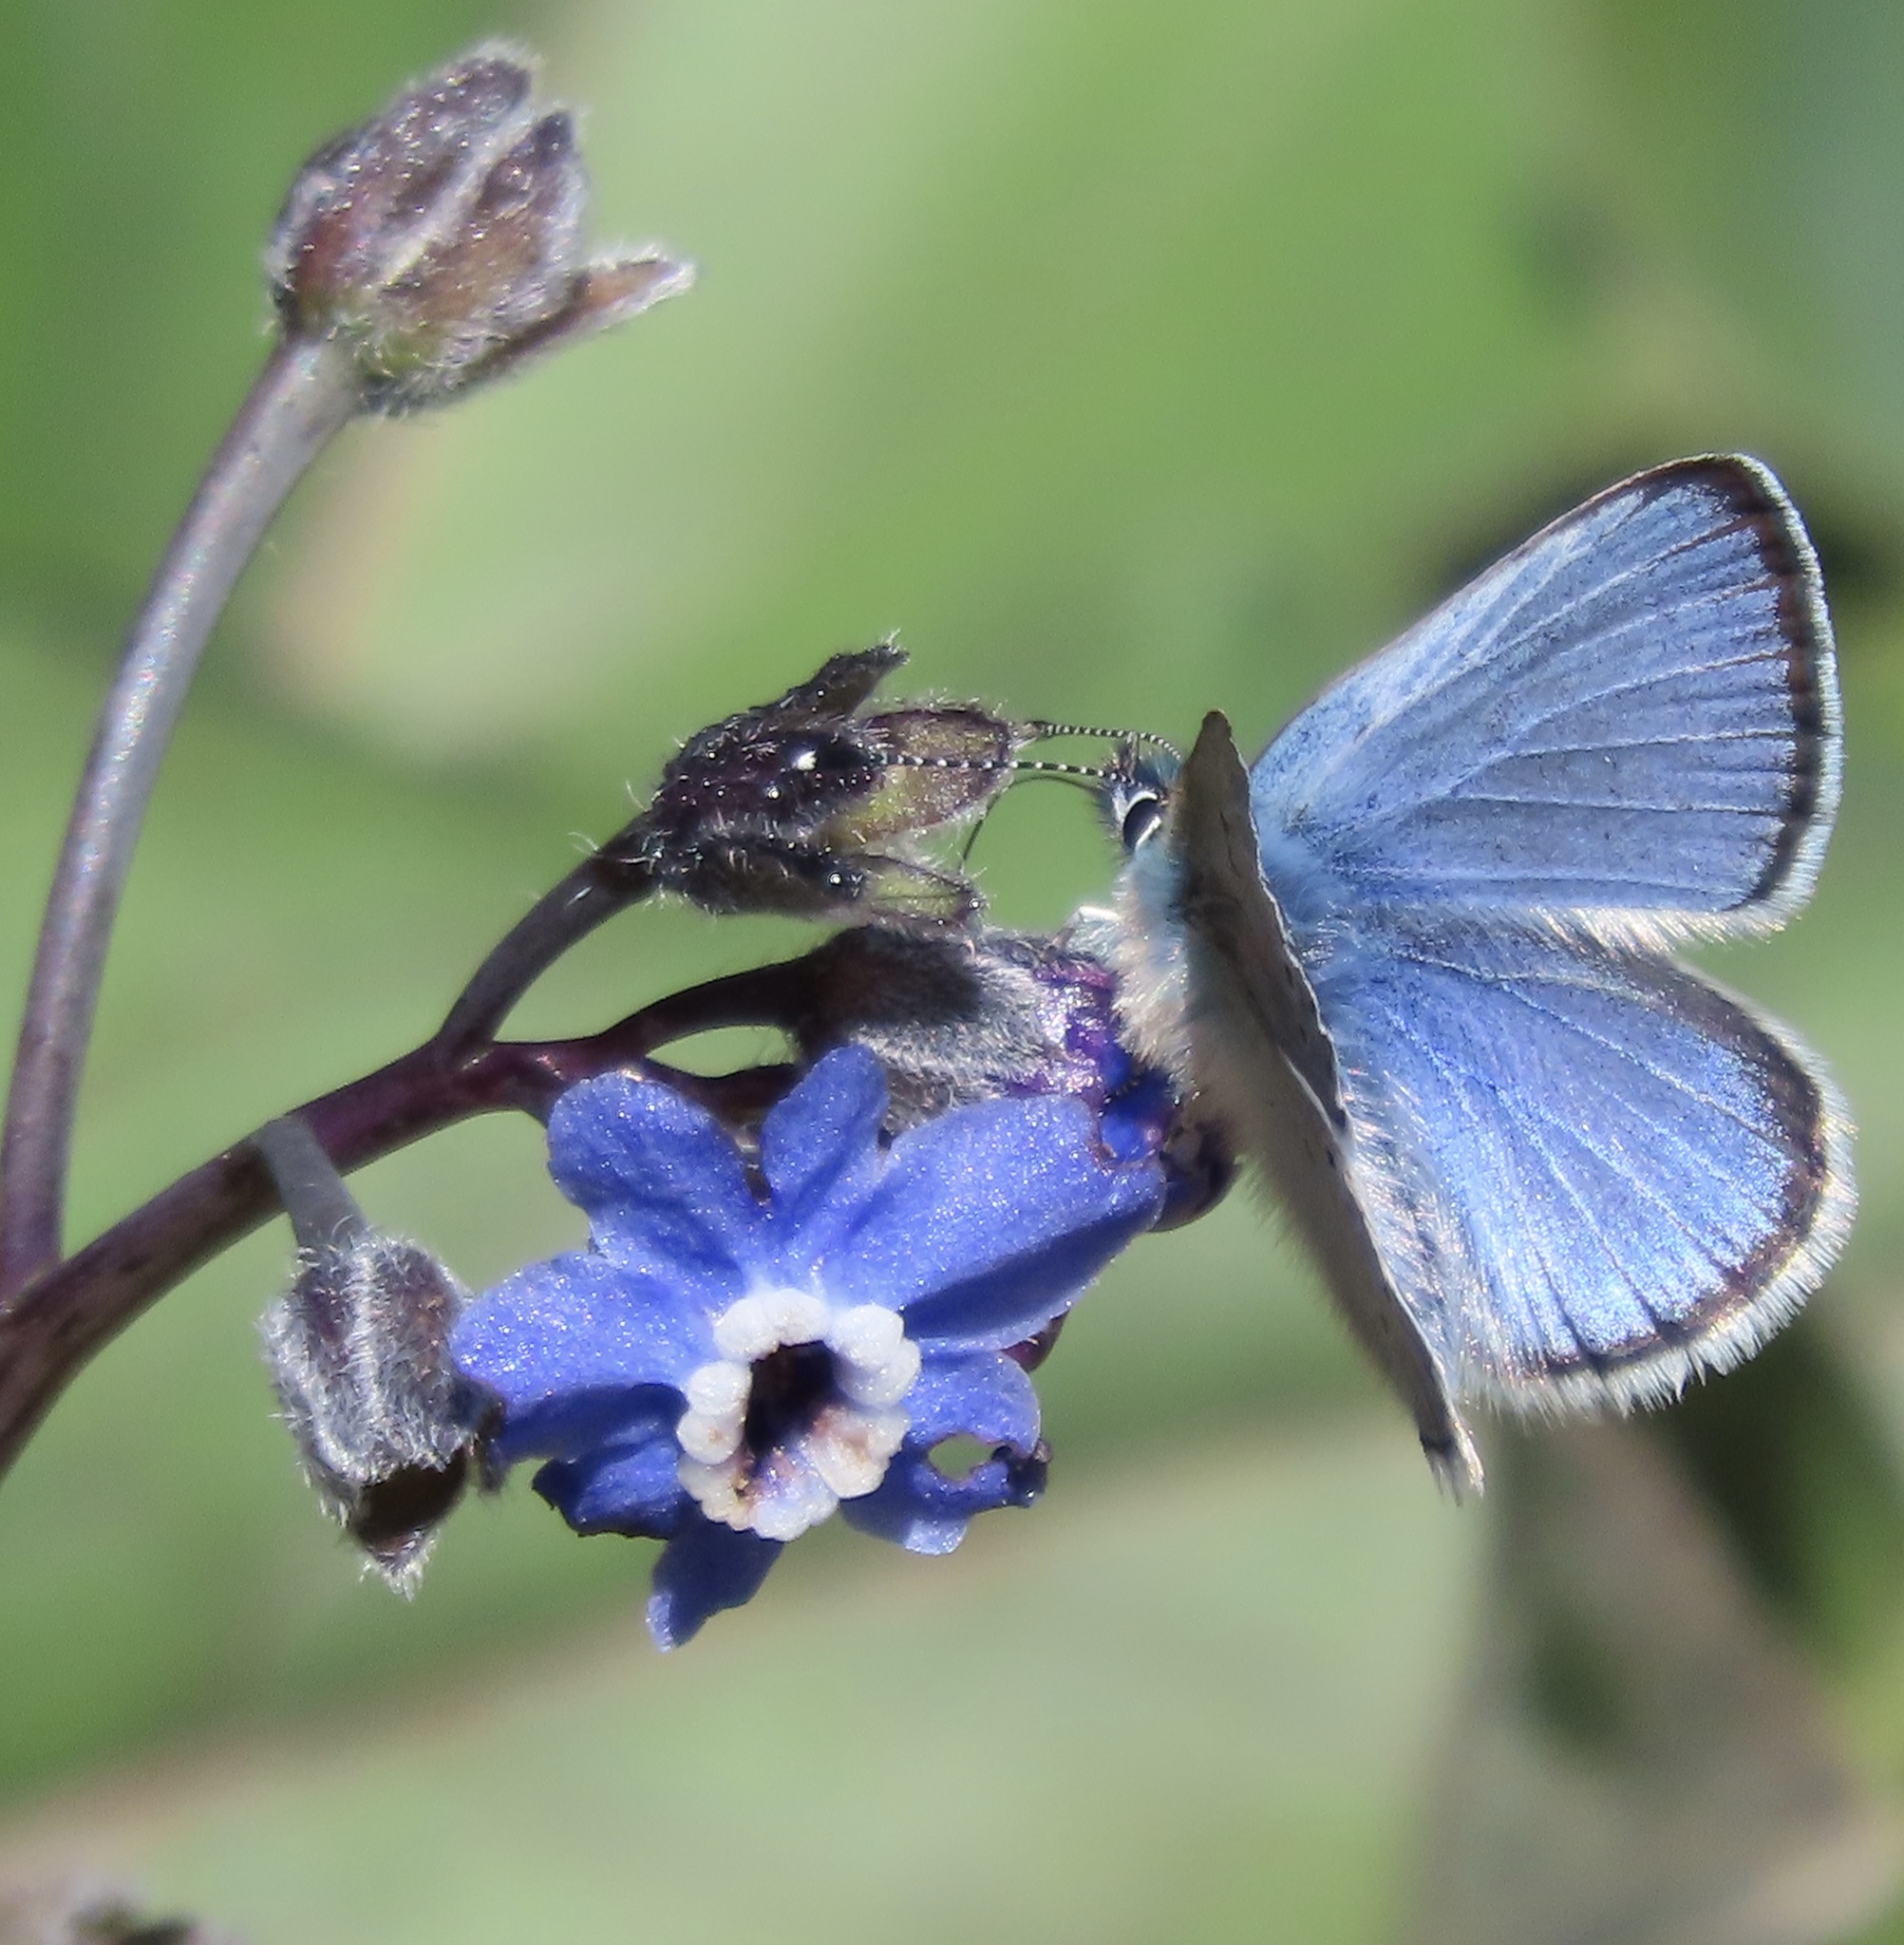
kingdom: Animalia
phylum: Arthropoda
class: Insecta
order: Lepidoptera
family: Lycaenidae
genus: Glaucopsyche
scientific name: Glaucopsyche lygdamus
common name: Silvery blue
